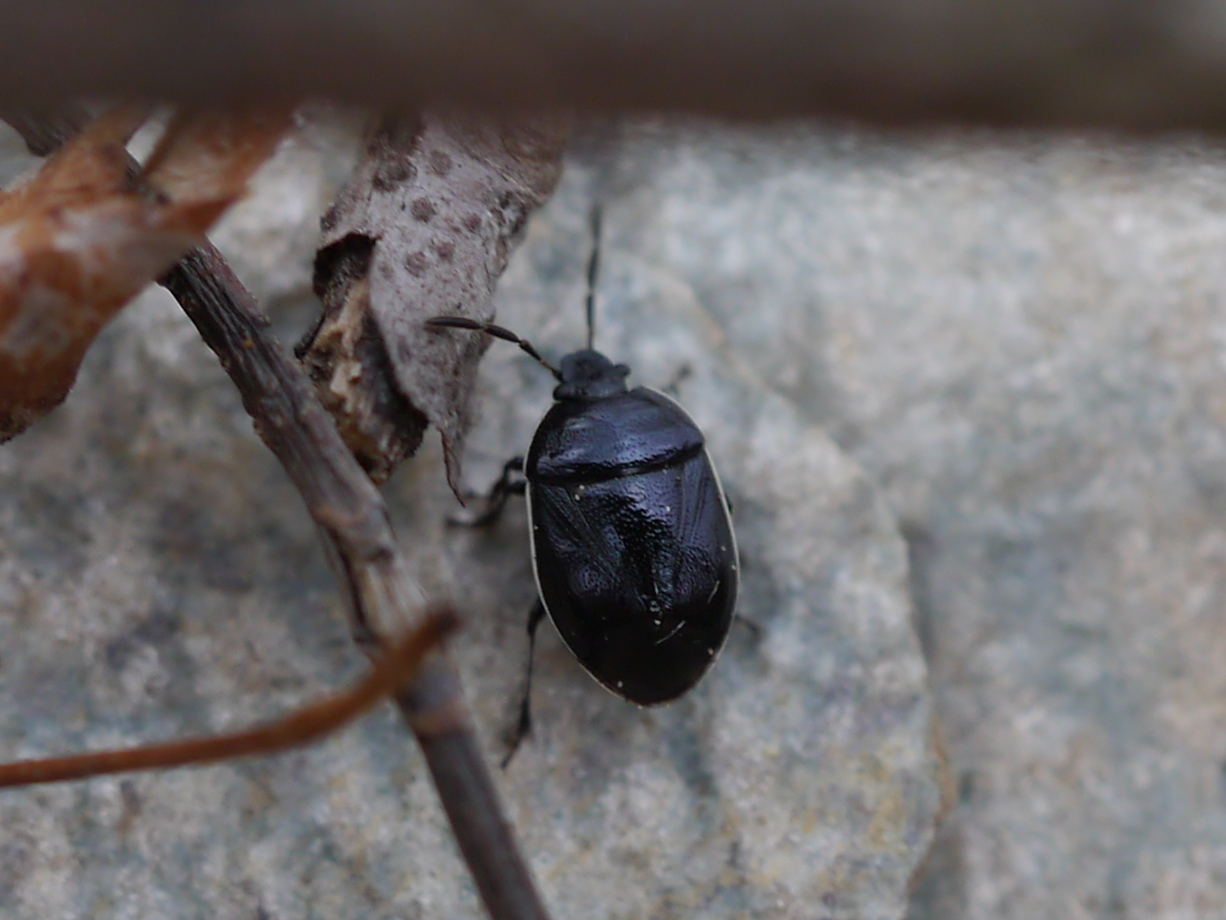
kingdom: Animalia
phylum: Arthropoda
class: Insecta
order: Hemiptera
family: Cydnidae
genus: Sehirus
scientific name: Sehirus cinctus
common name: White-margined burrower bug
